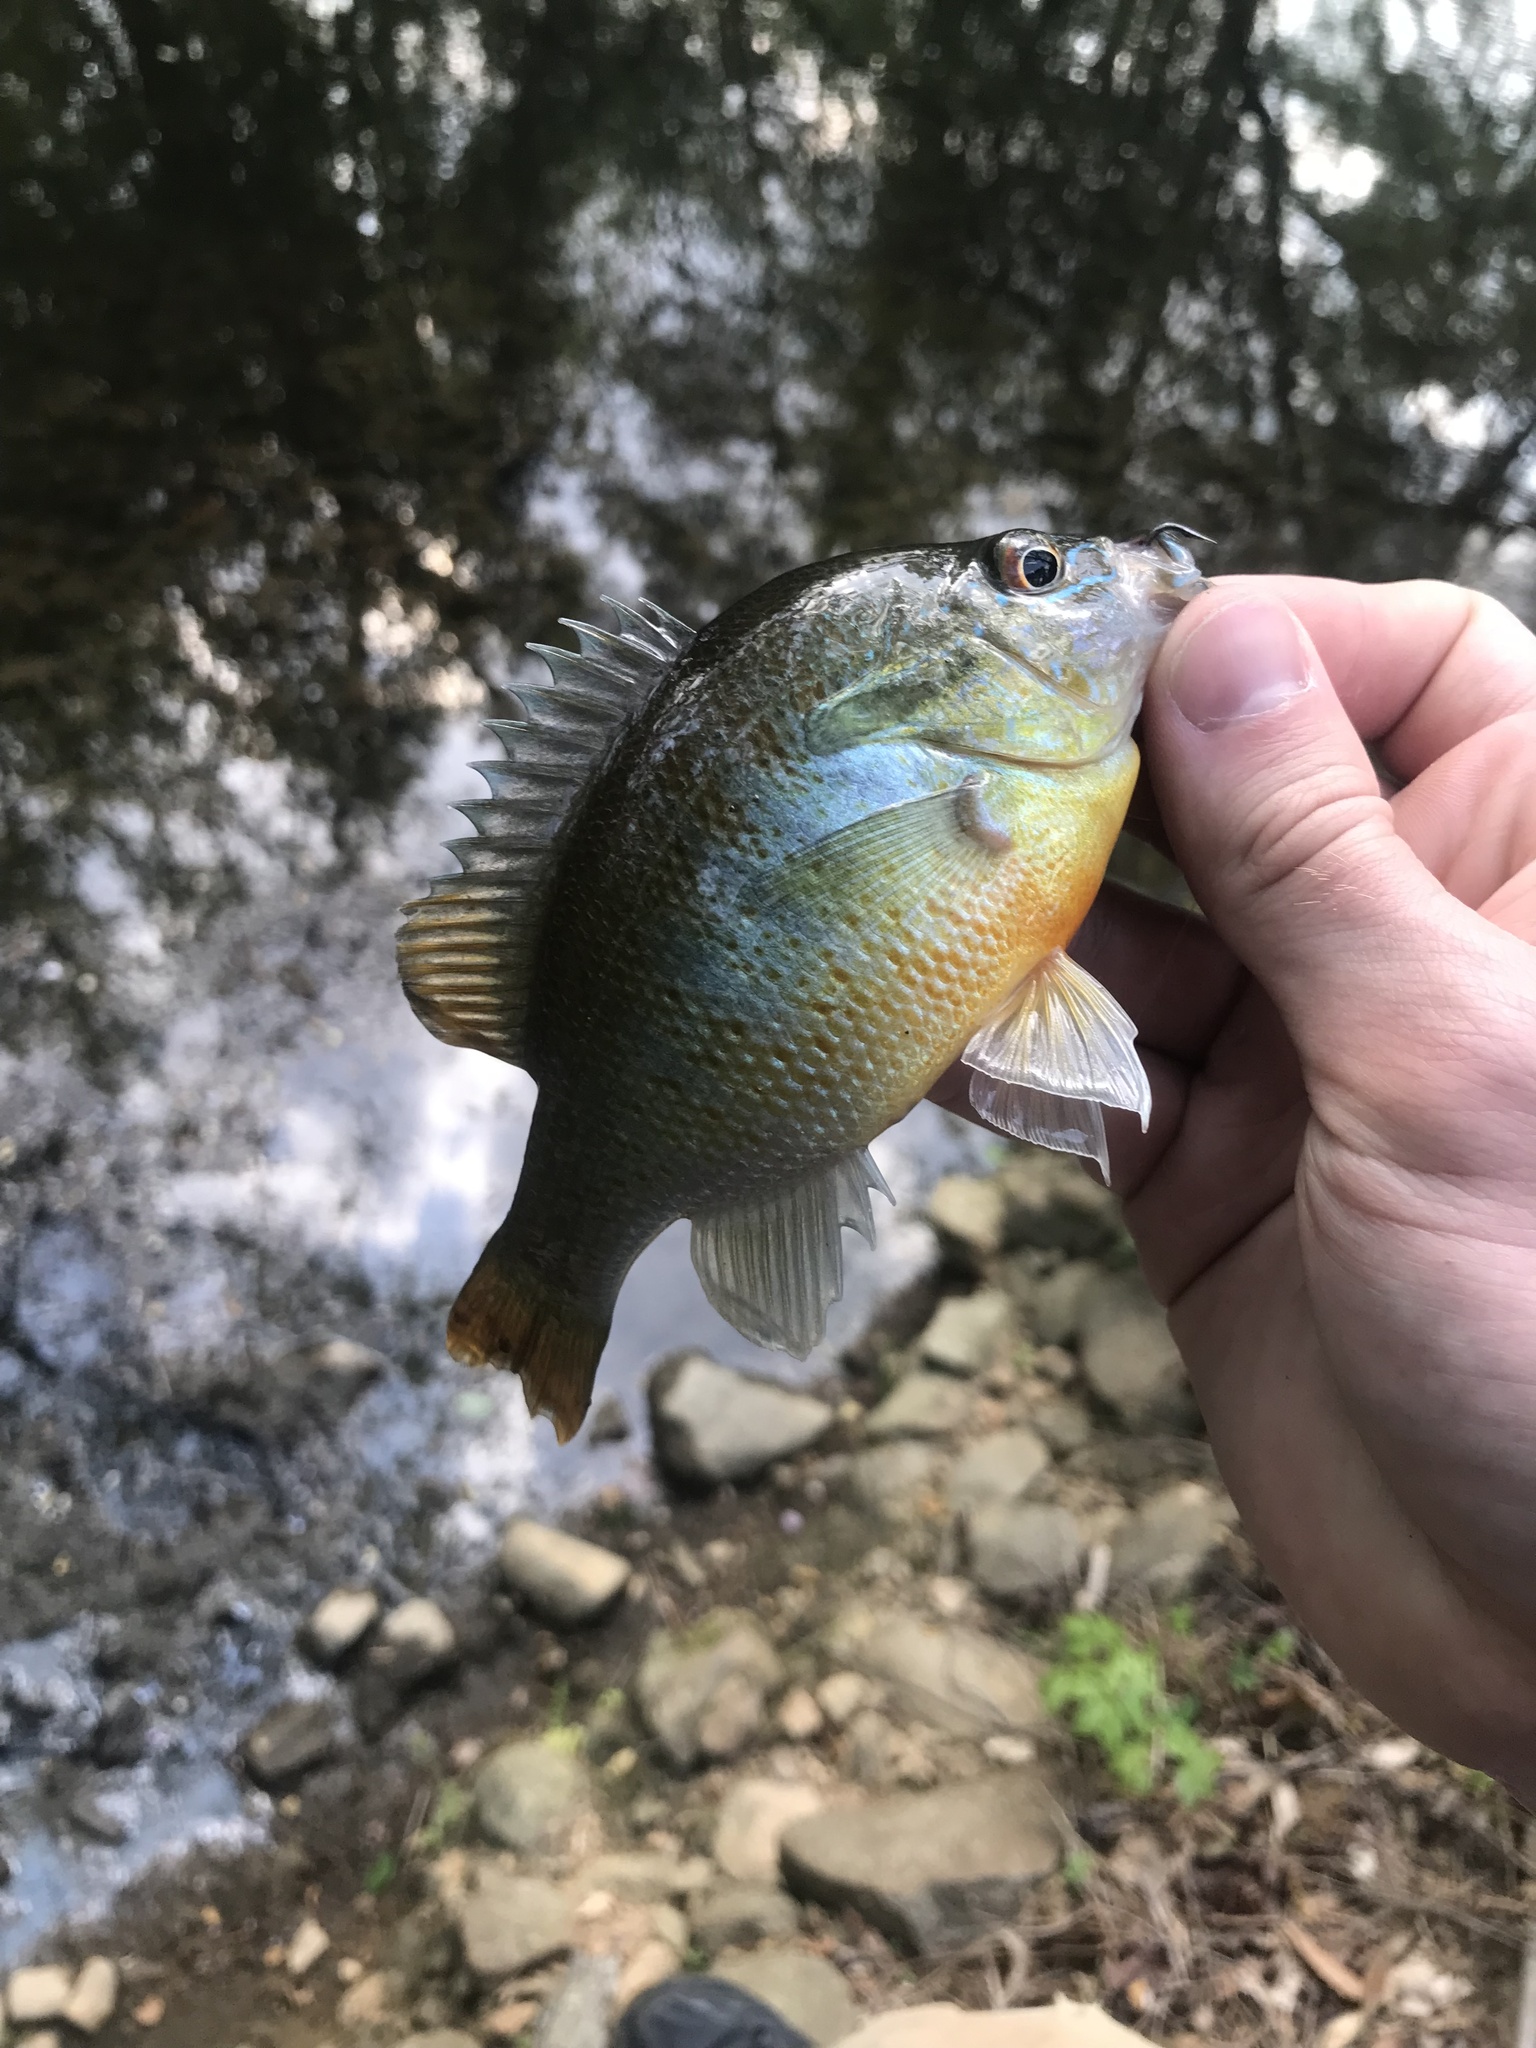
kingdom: Animalia
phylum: Chordata
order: Perciformes
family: Centrarchidae
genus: Lepomis
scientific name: Lepomis auritus
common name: Redbreast sunfish
